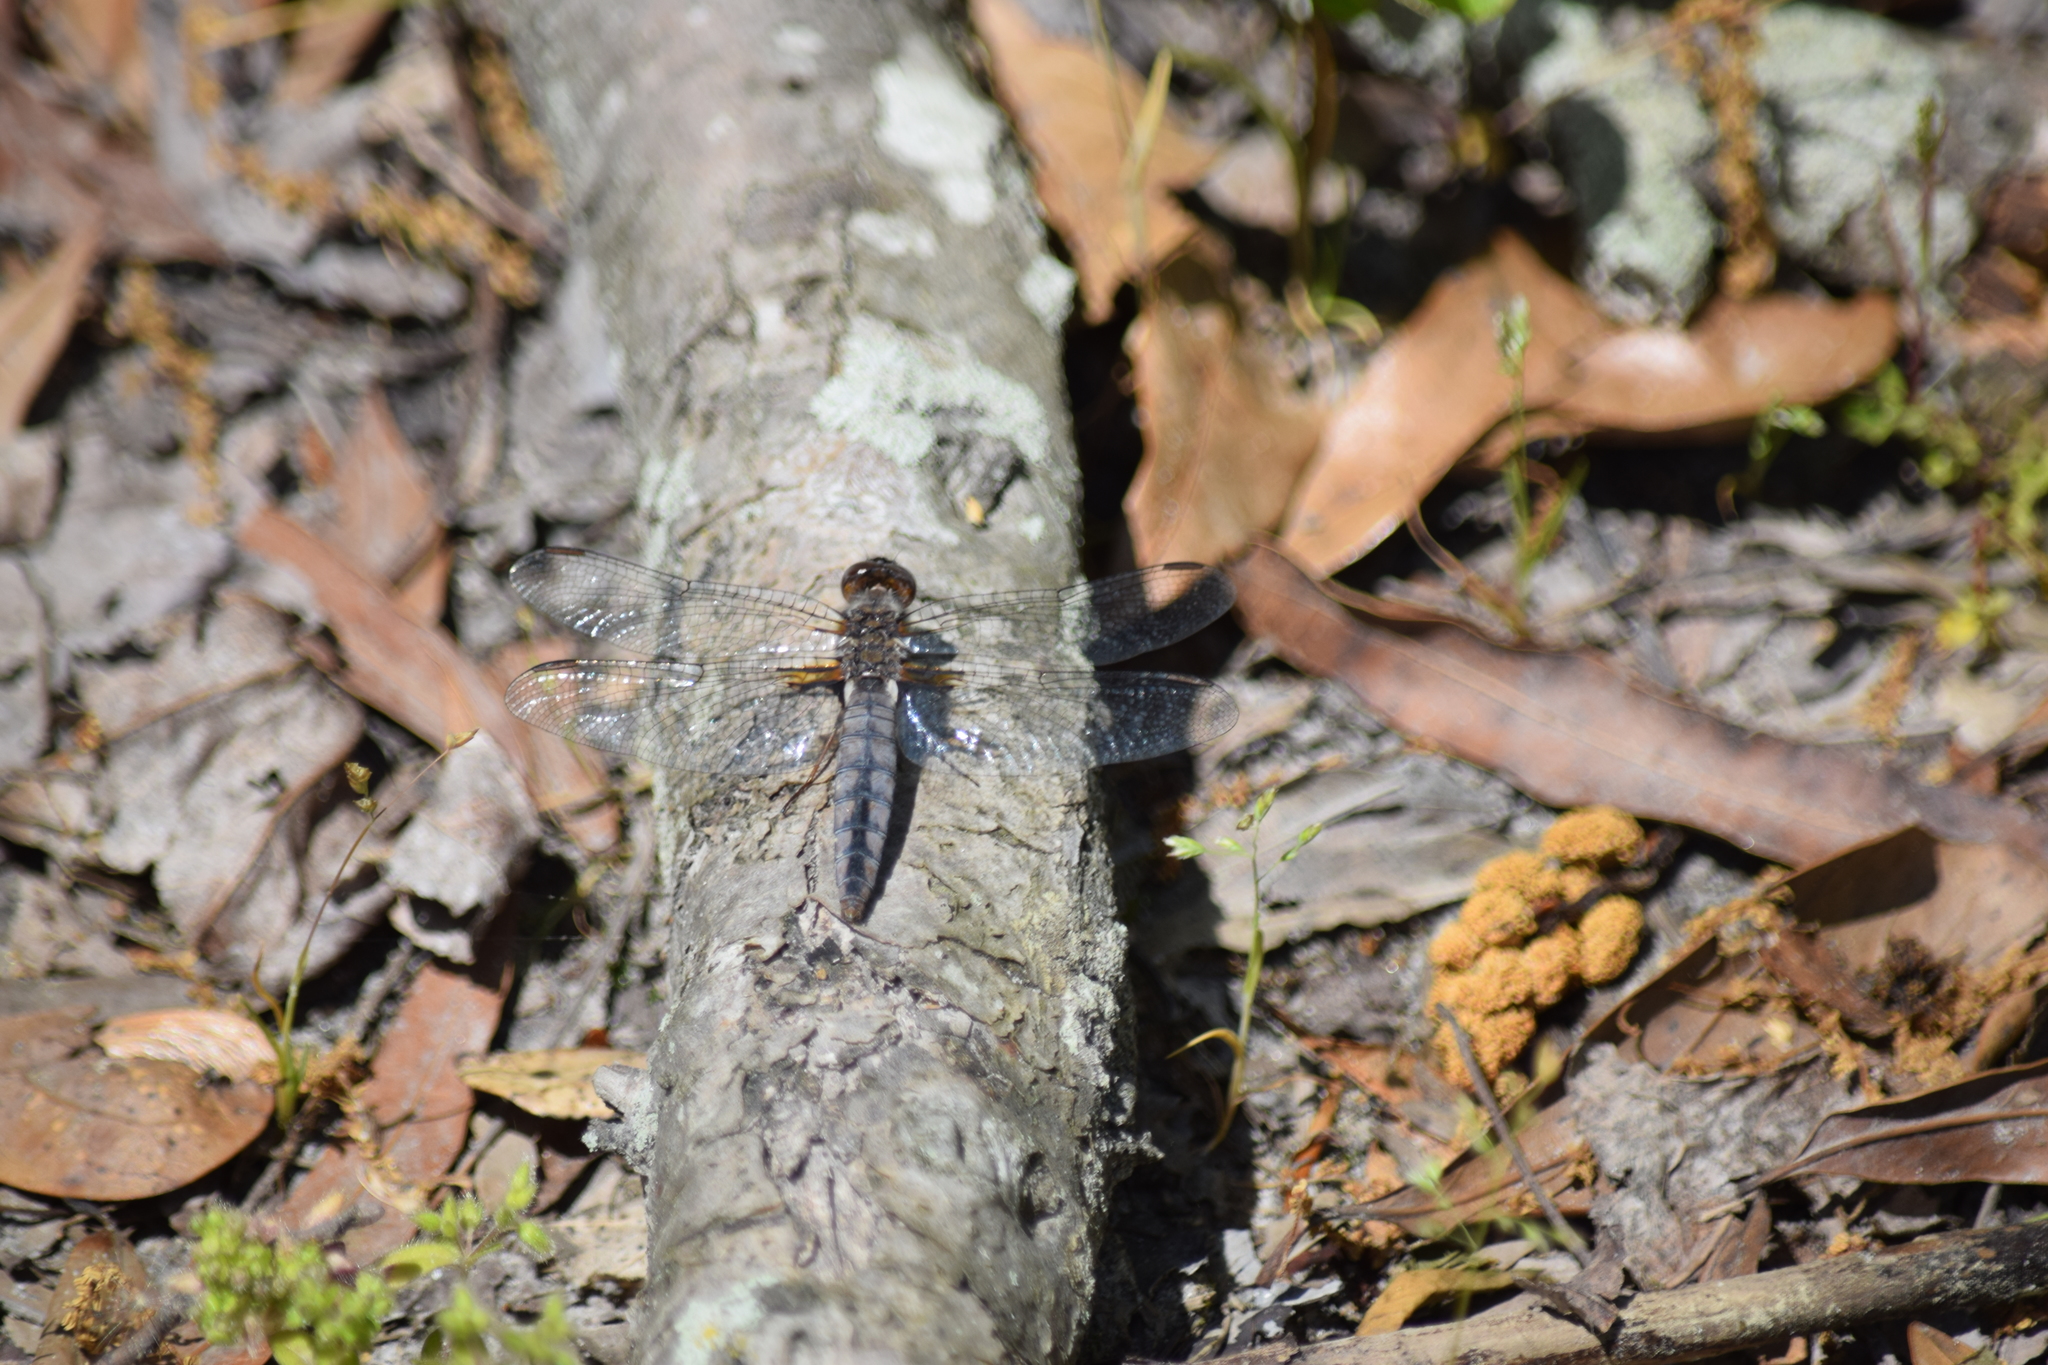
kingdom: Animalia
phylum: Arthropoda
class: Insecta
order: Odonata
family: Libellulidae
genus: Ladona
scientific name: Ladona deplanata
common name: Blue corporal
